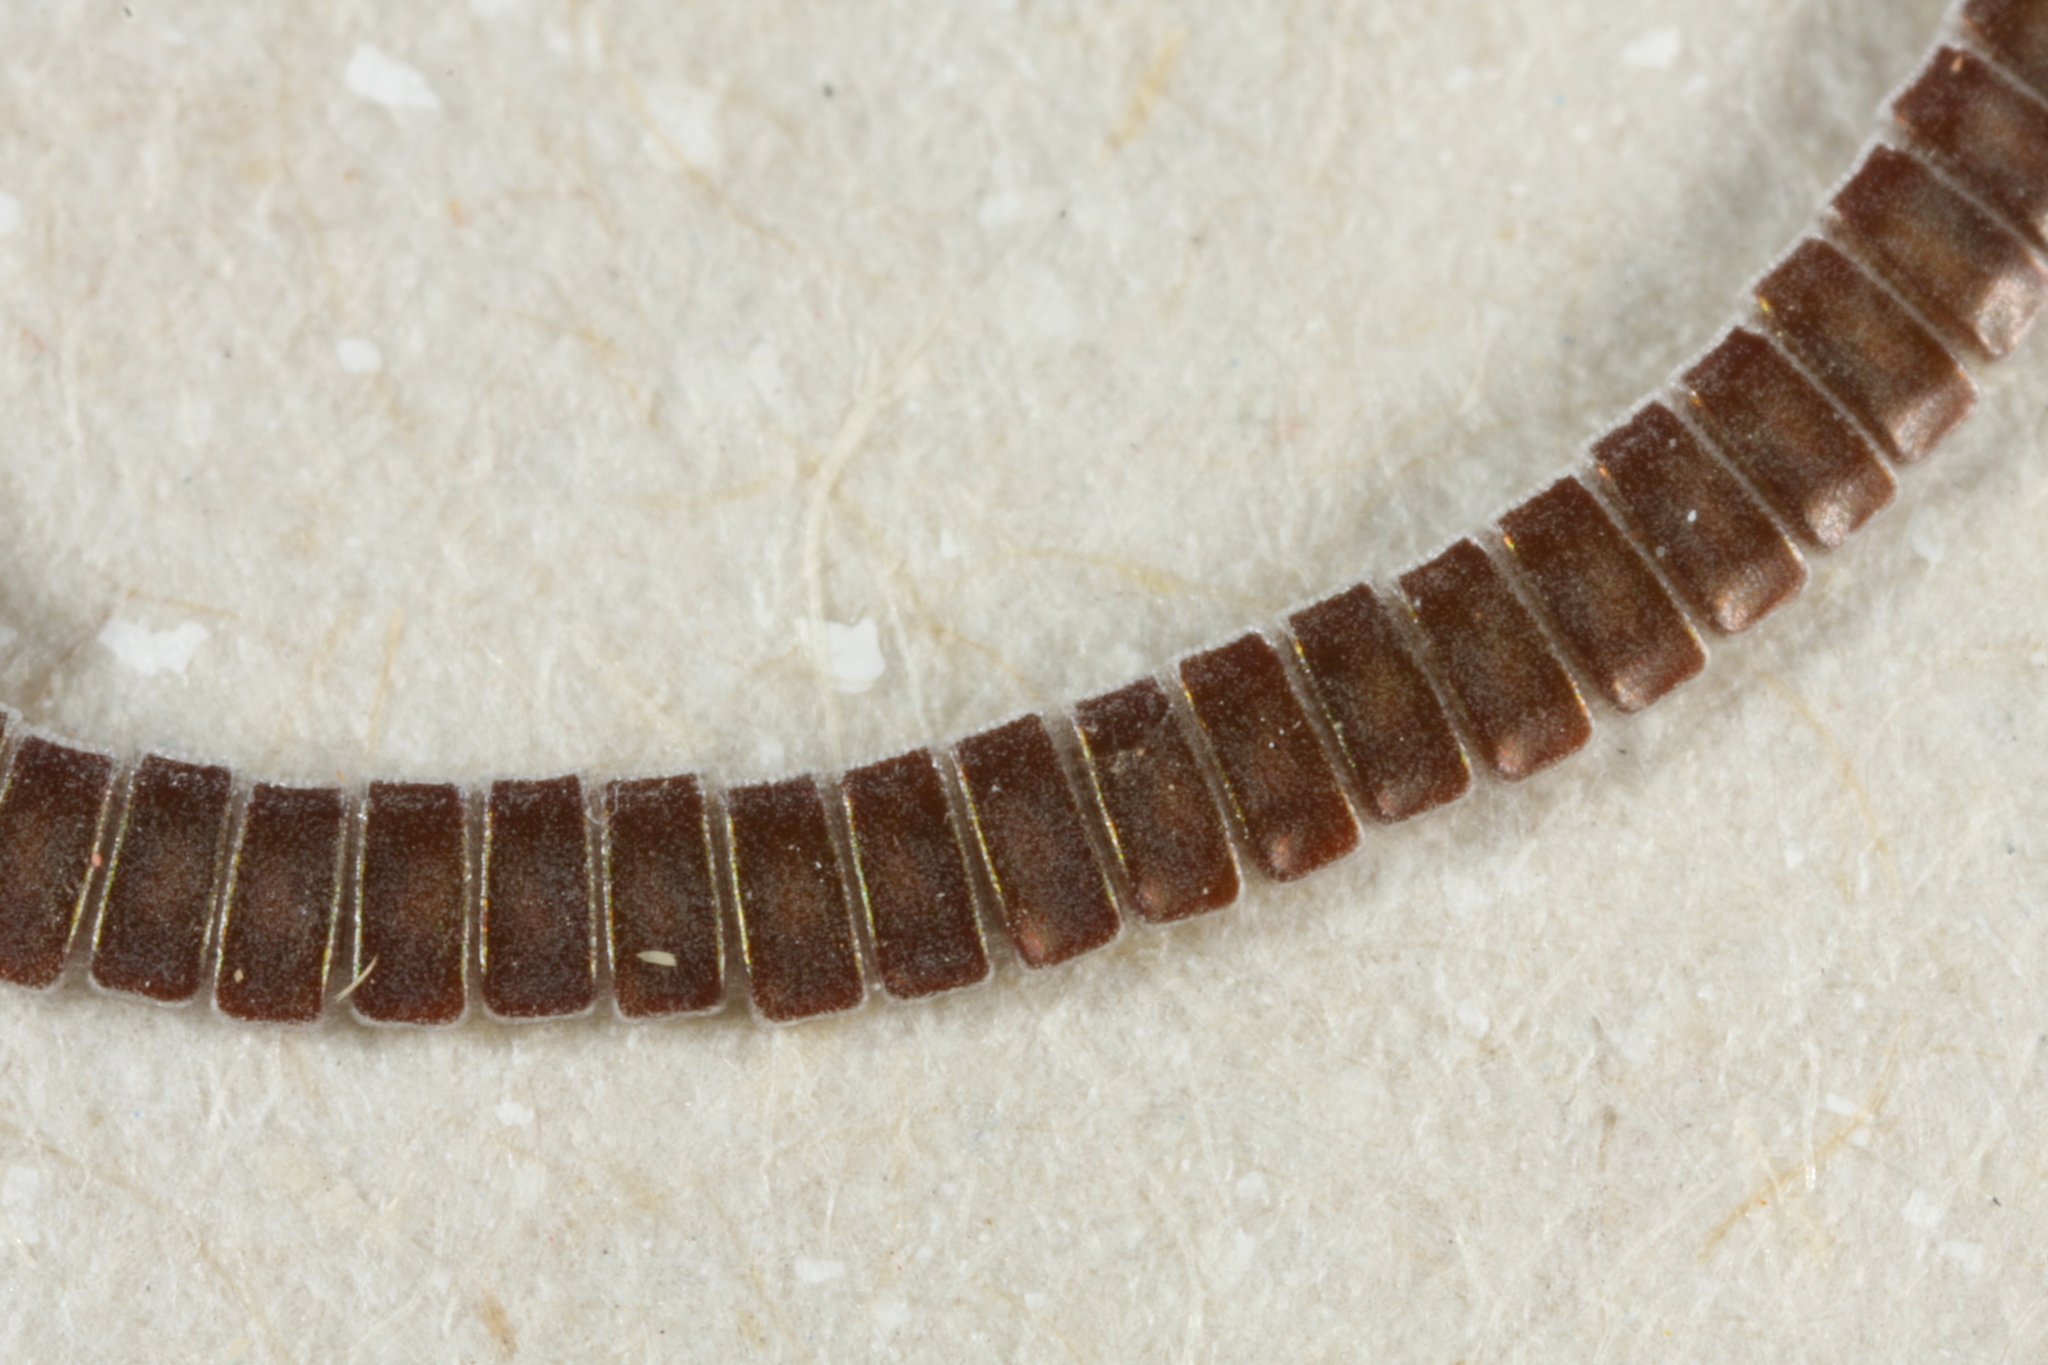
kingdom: Animalia
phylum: Arthropoda
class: Insecta
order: Lepidoptera
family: Geometridae
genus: Ennomos
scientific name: Ennomos erosaria
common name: September thorn
